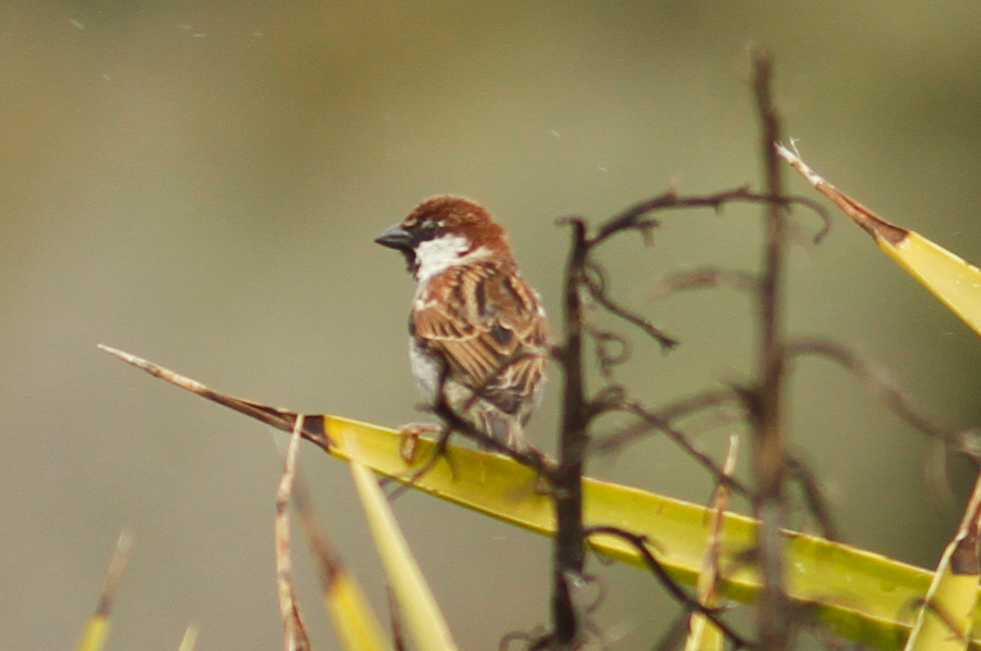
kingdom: Animalia
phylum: Chordata
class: Aves
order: Passeriformes
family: Passeridae
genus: Passer
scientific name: Passer italiae
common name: Italian sparrow
